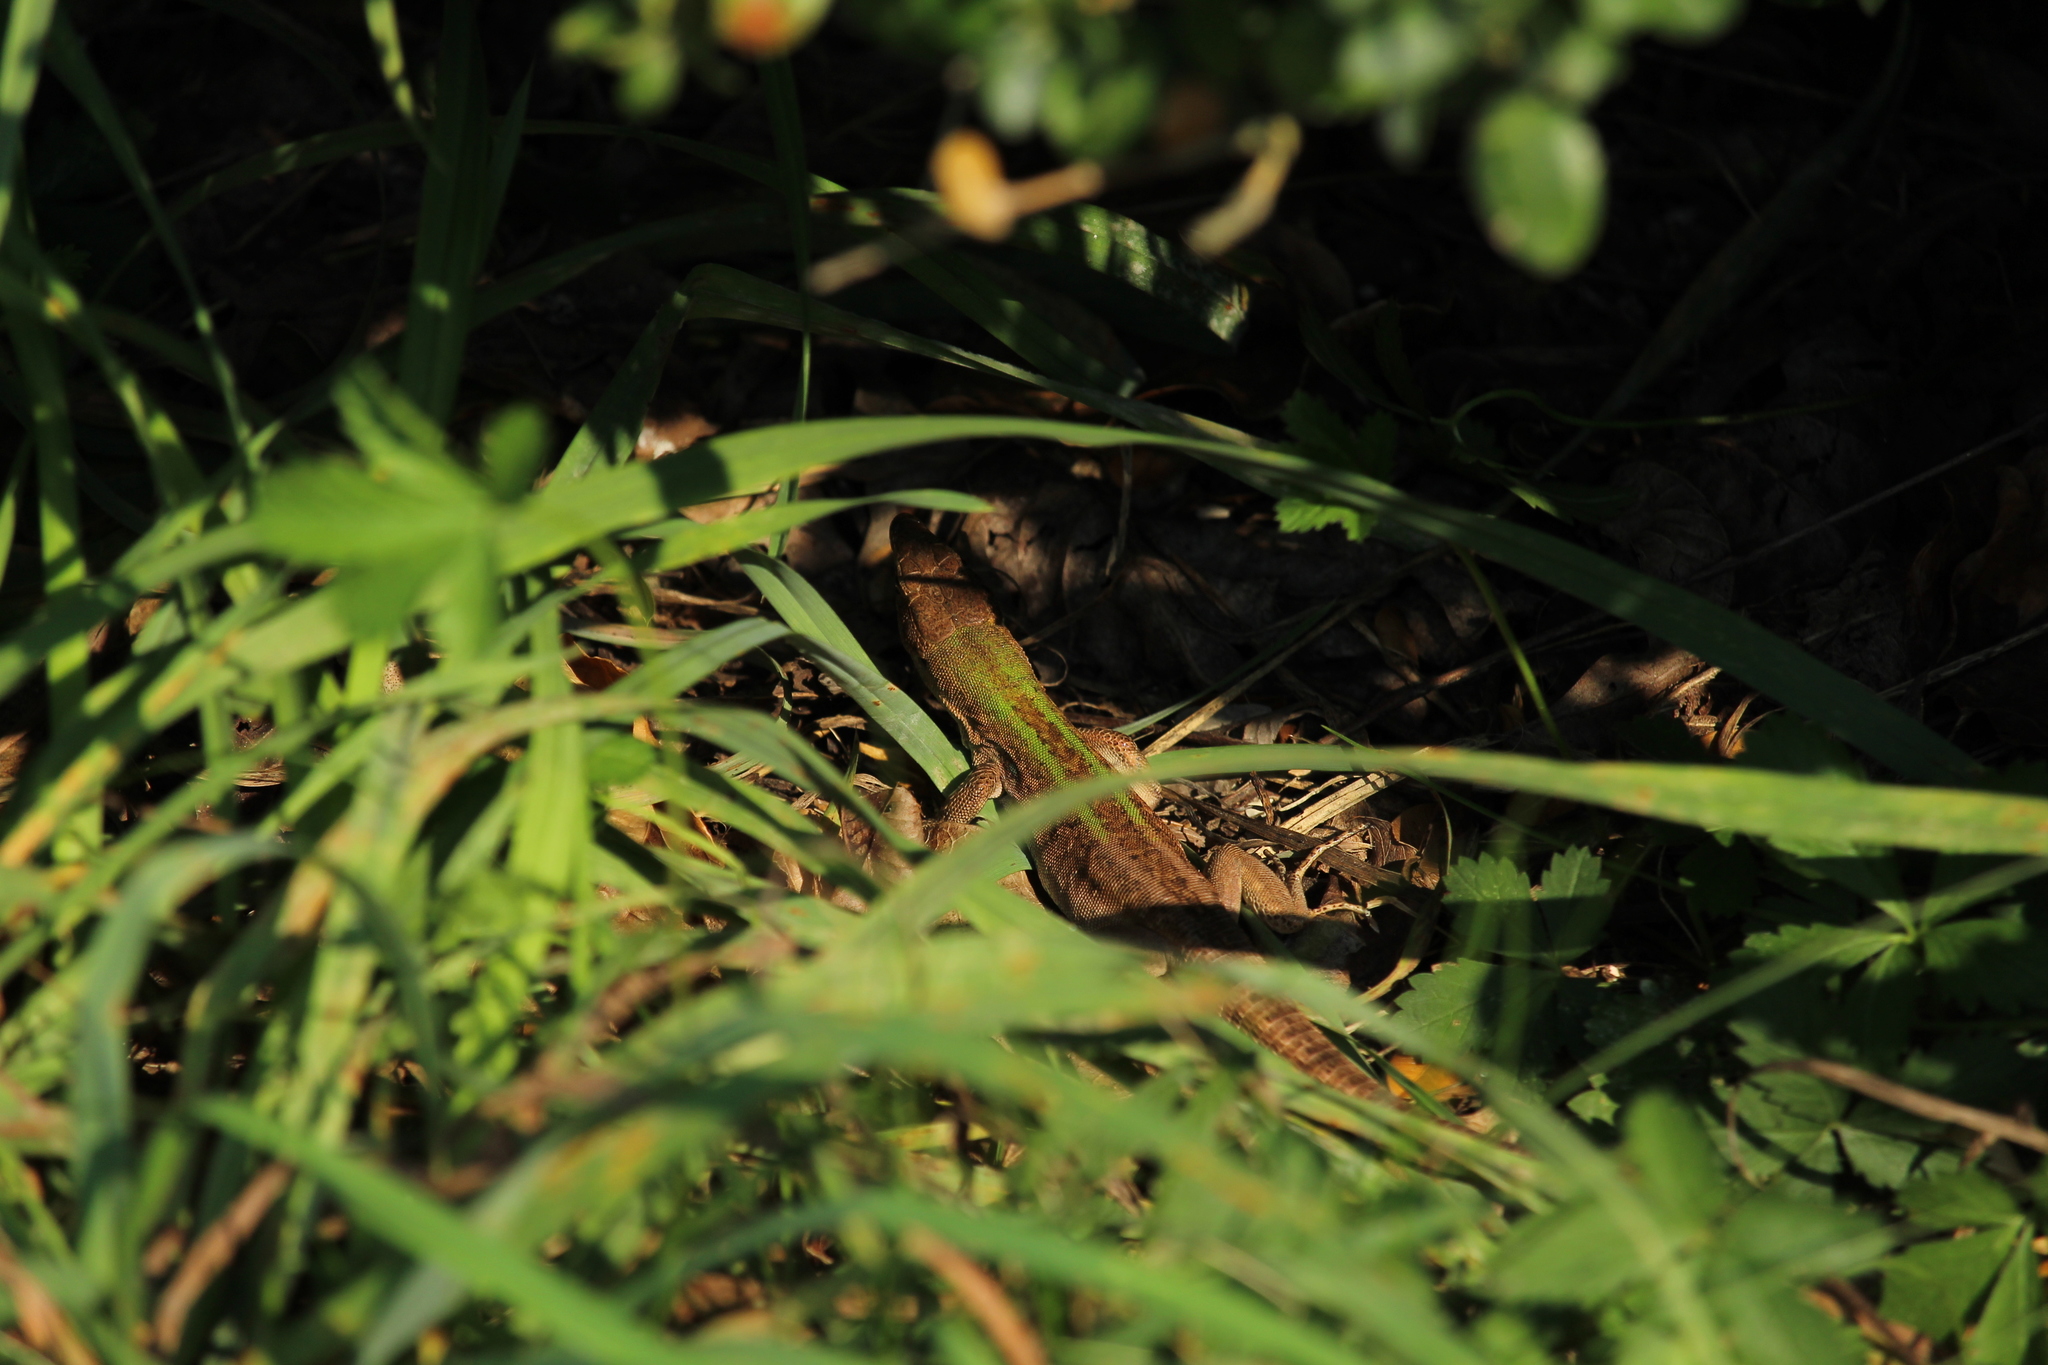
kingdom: Animalia
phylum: Chordata
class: Squamata
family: Lacertidae
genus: Podarcis
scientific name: Podarcis siculus
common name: Italian wall lizard
